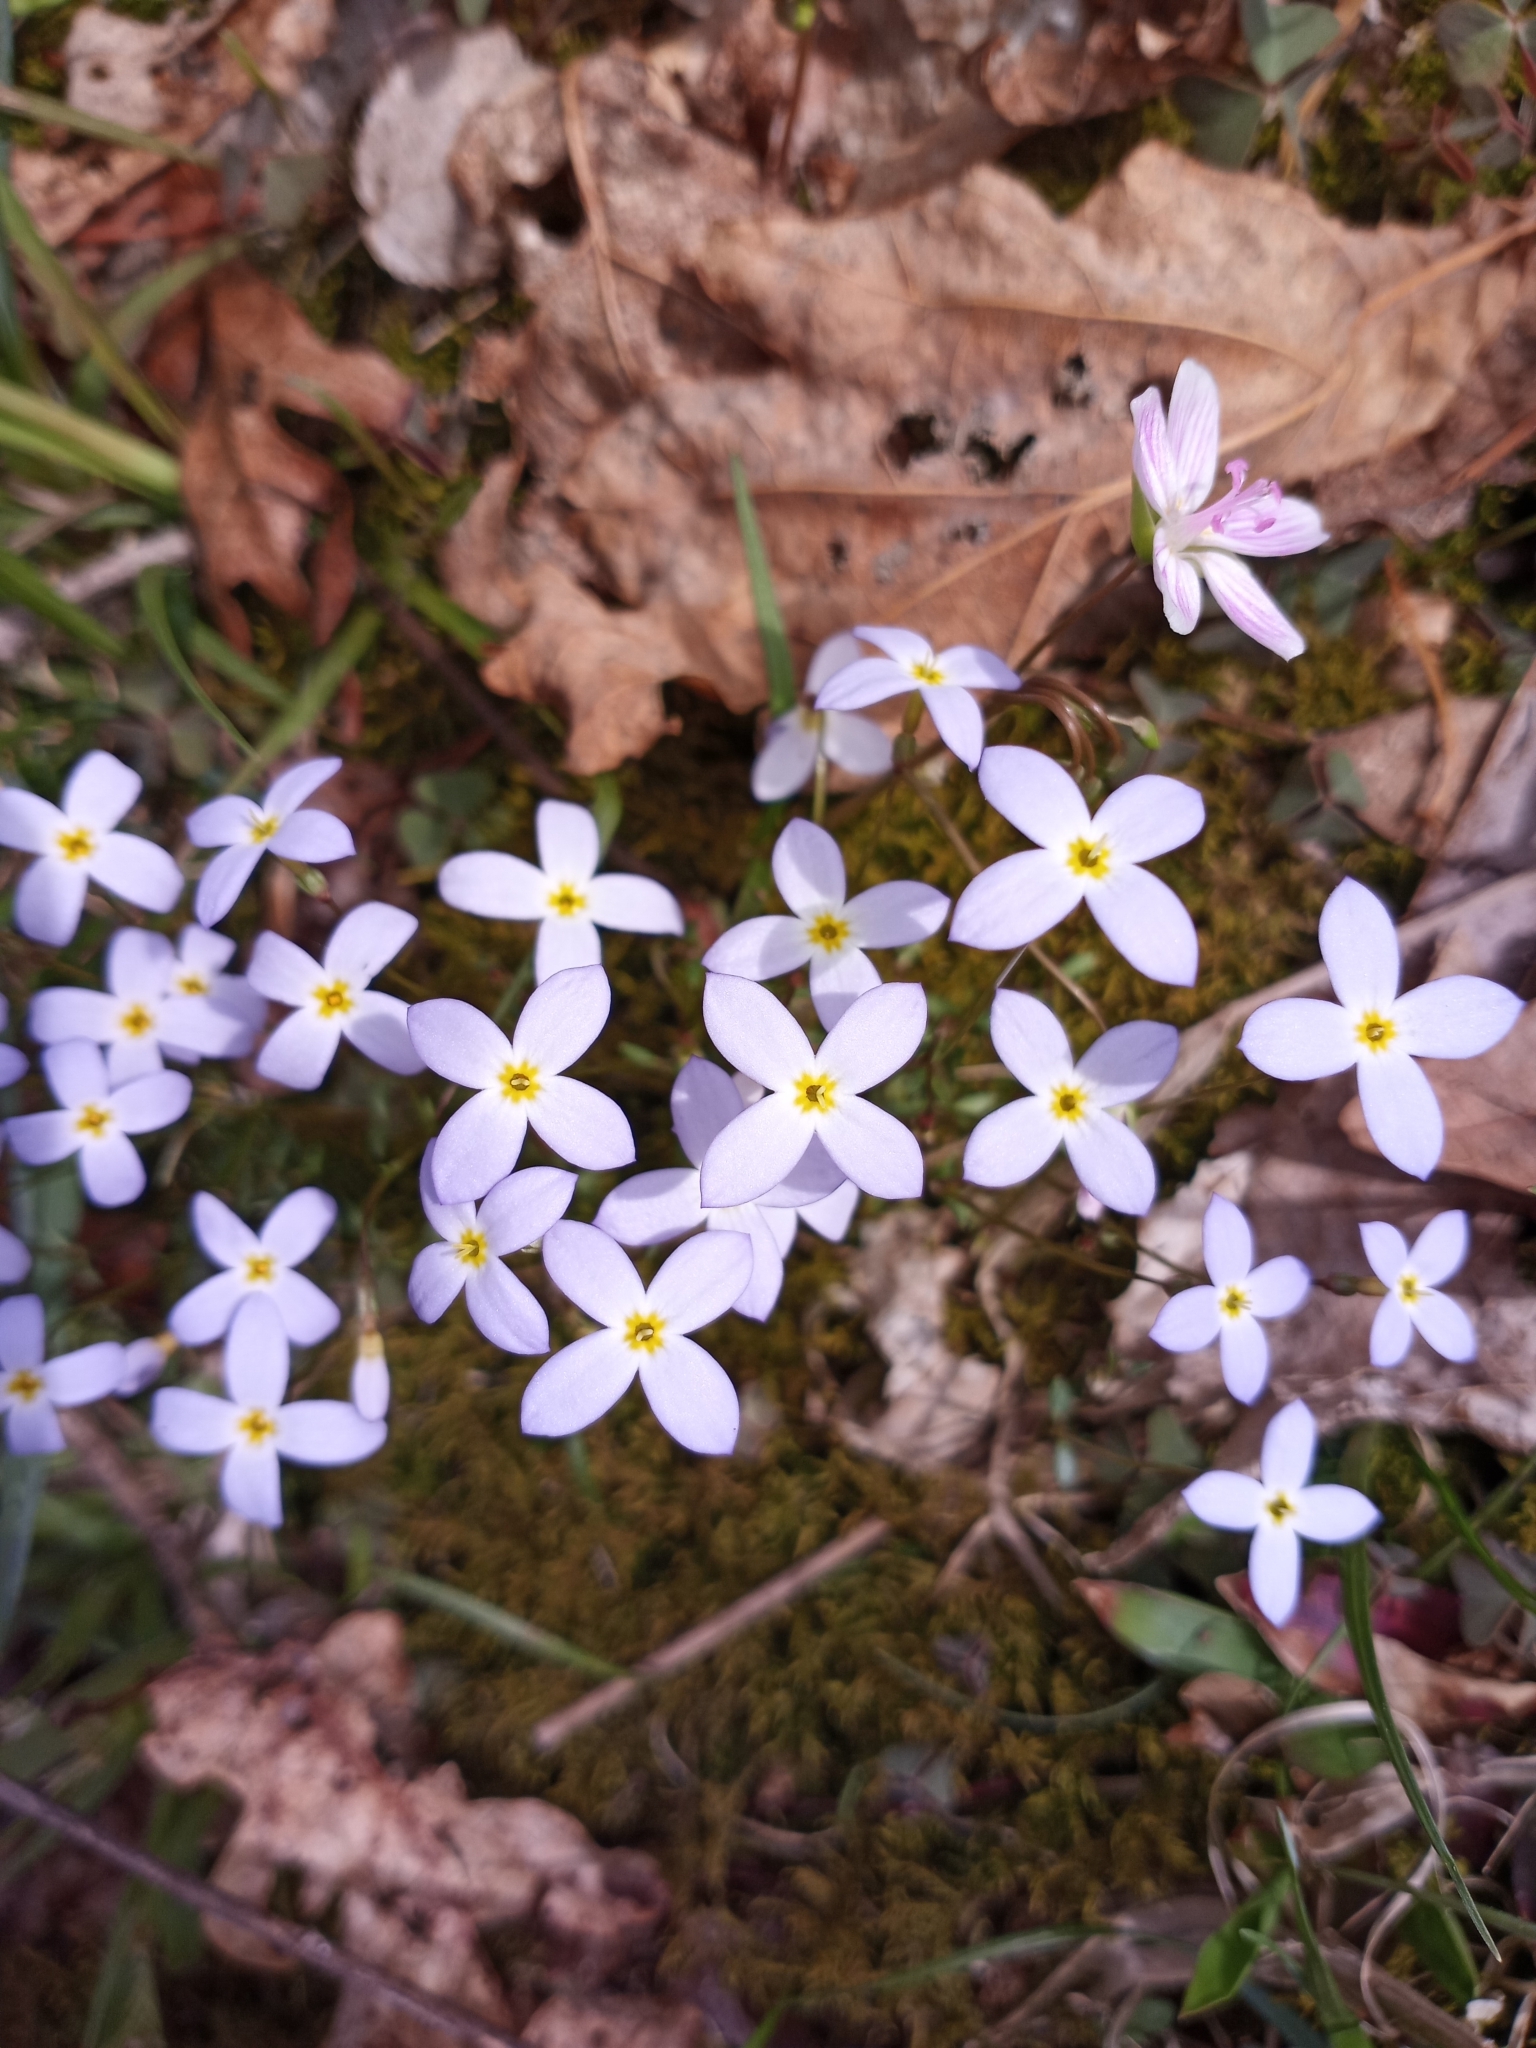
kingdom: Plantae
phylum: Tracheophyta
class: Magnoliopsida
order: Gentianales
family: Rubiaceae
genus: Houstonia
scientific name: Houstonia caerulea
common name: Bluets
